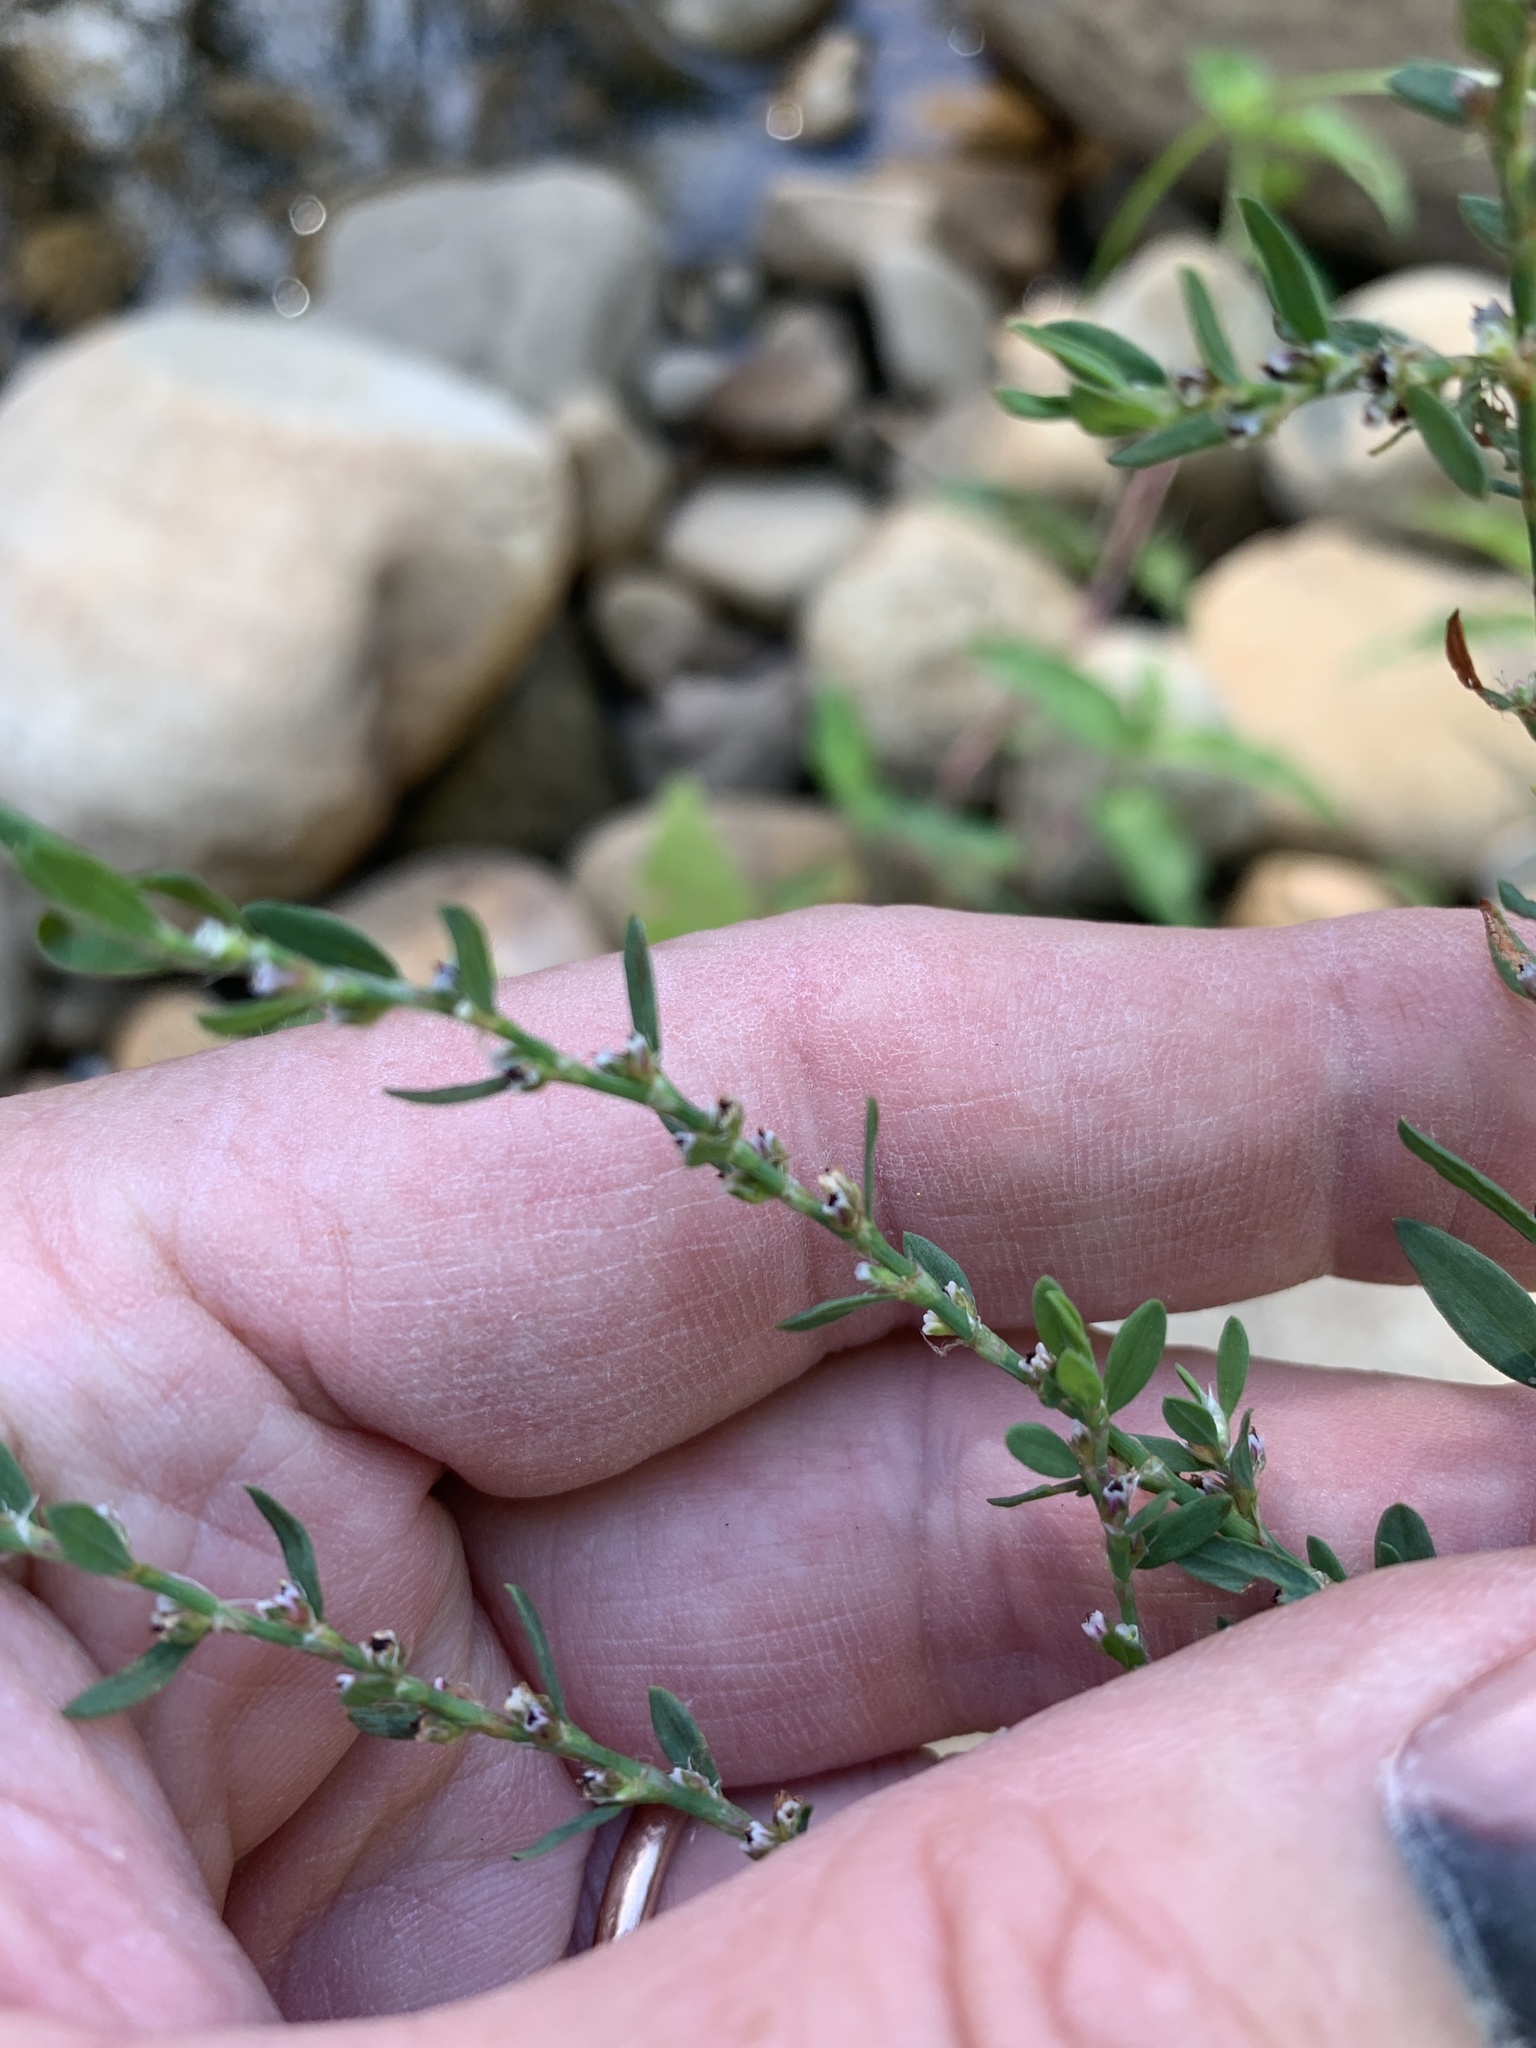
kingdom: Plantae
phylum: Tracheophyta
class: Magnoliopsida
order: Caryophyllales
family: Polygonaceae
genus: Polygonum
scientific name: Polygonum aviculare
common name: Prostrate knotweed
